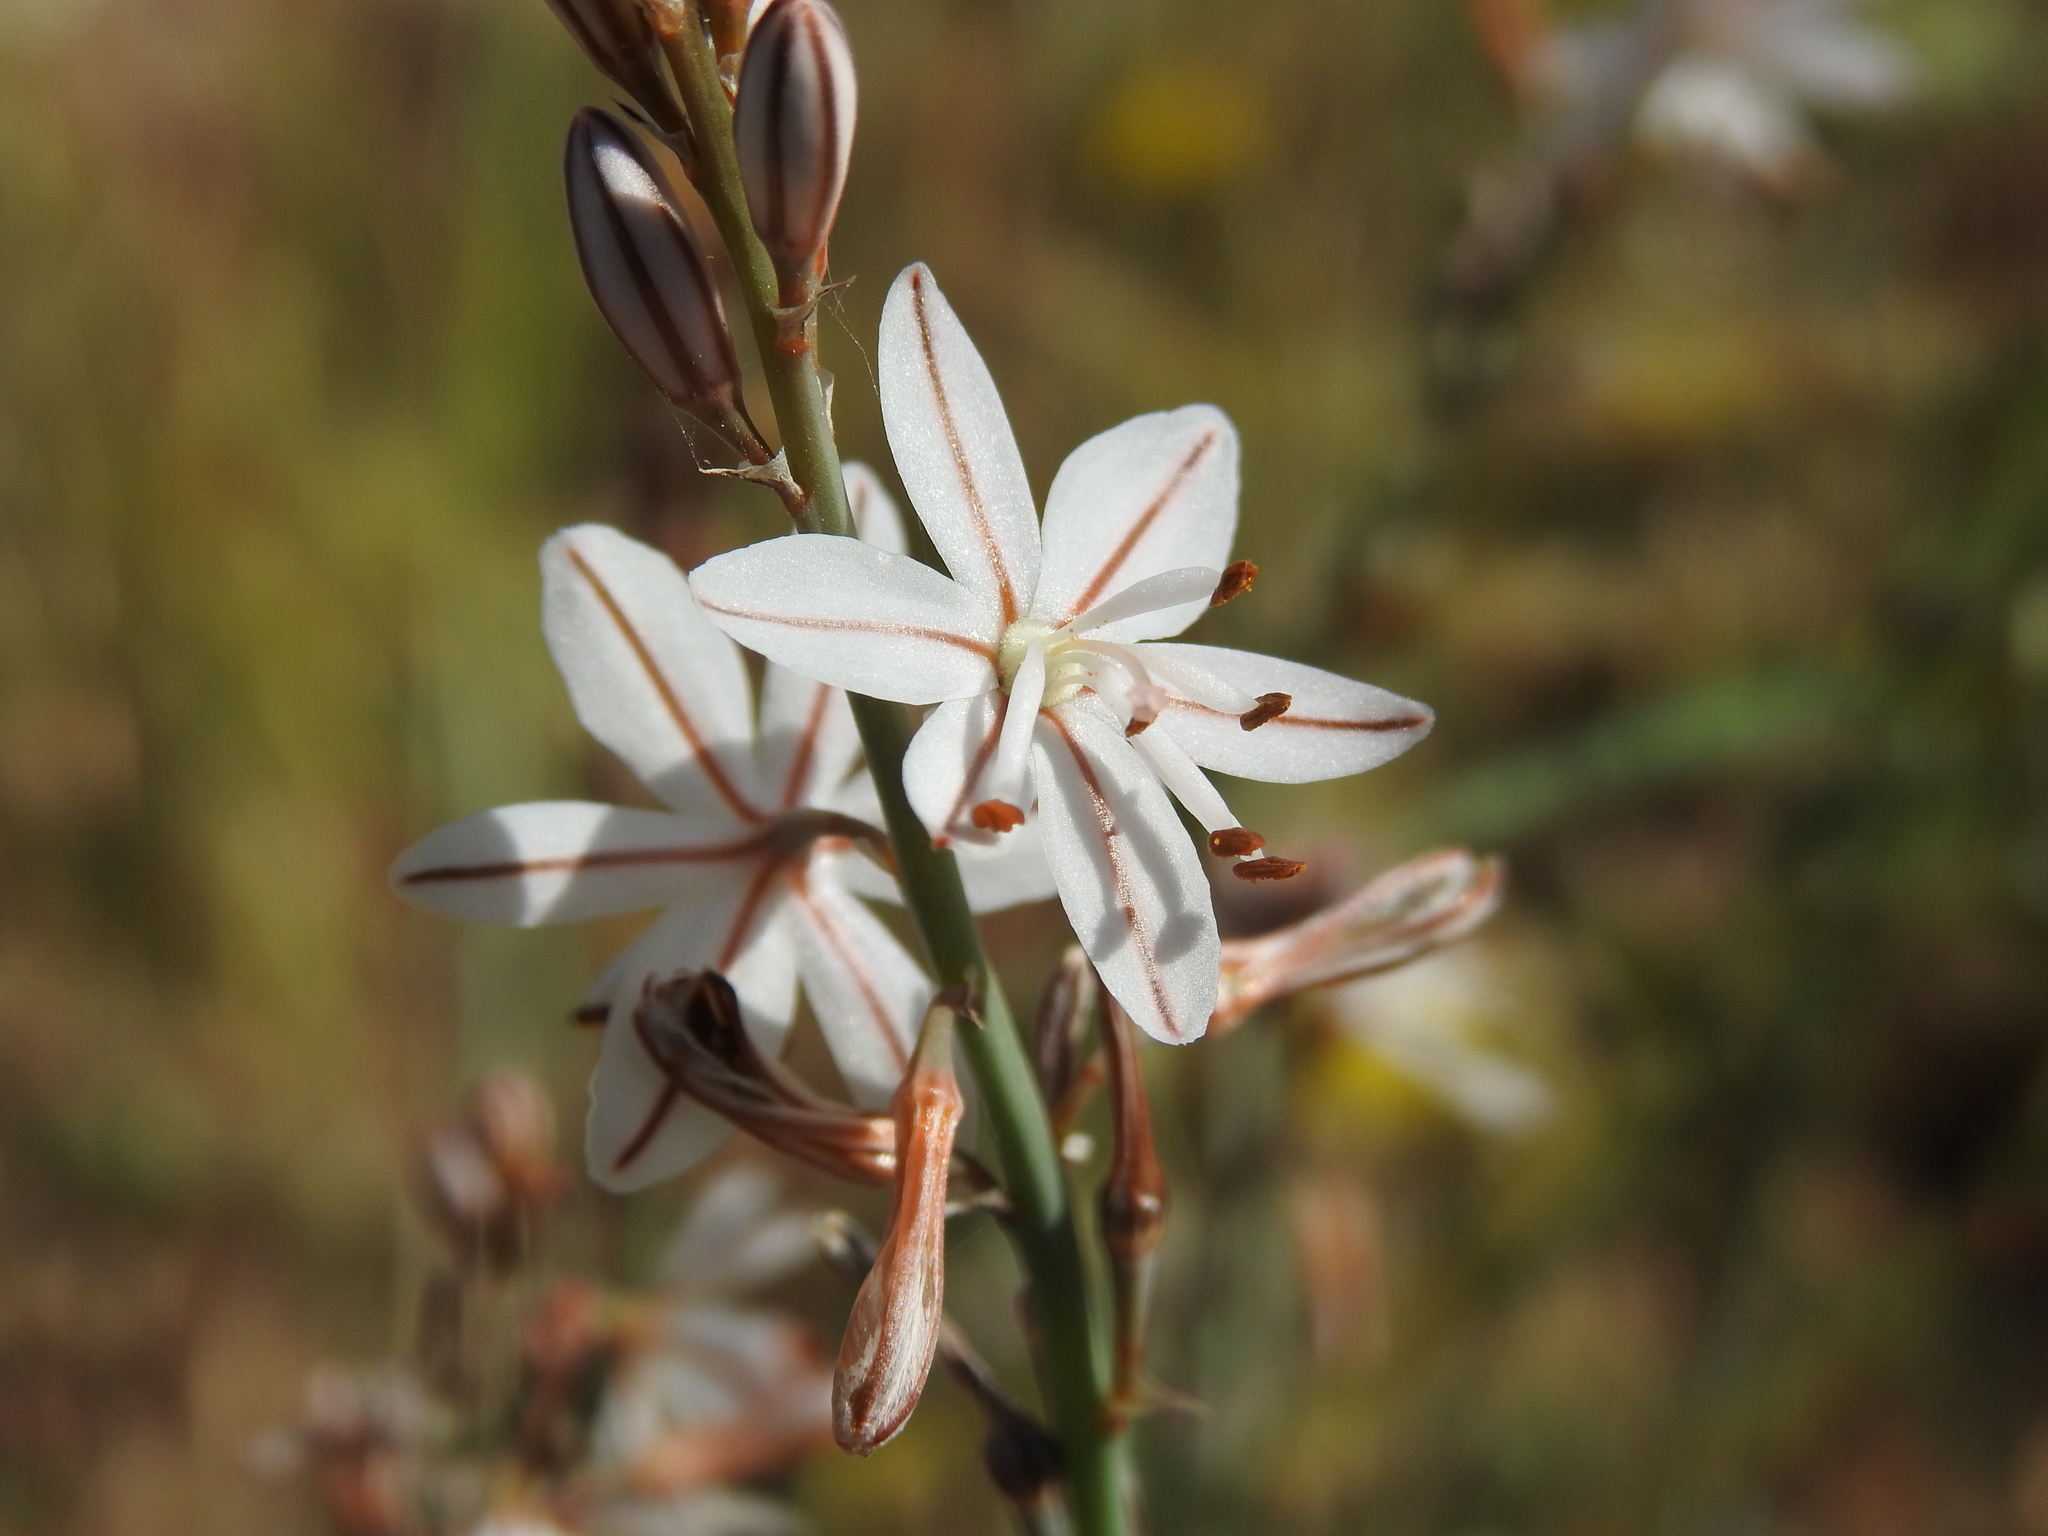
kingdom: Plantae
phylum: Tracheophyta
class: Liliopsida
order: Asparagales
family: Asphodelaceae
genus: Asphodelus
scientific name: Asphodelus fistulosus
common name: Onionweed
